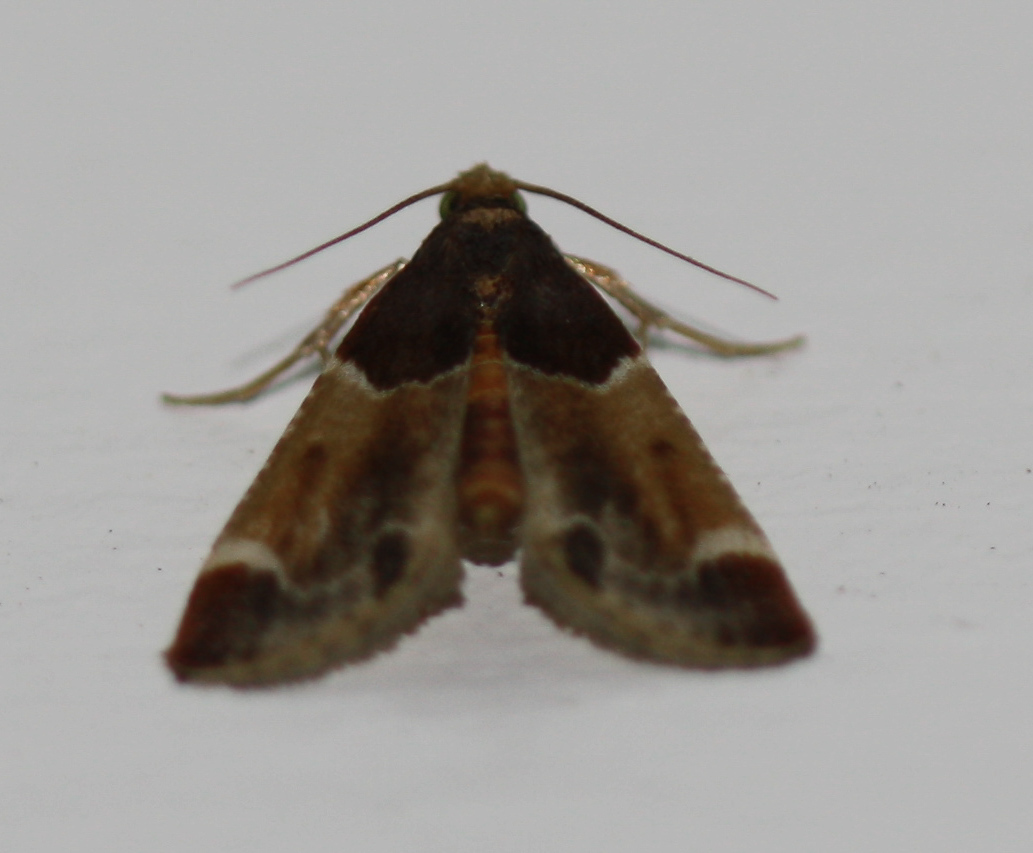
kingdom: Animalia
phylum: Arthropoda
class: Insecta
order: Lepidoptera
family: Pyralidae
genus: Pyralis
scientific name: Pyralis farinalis
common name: Meal moth
